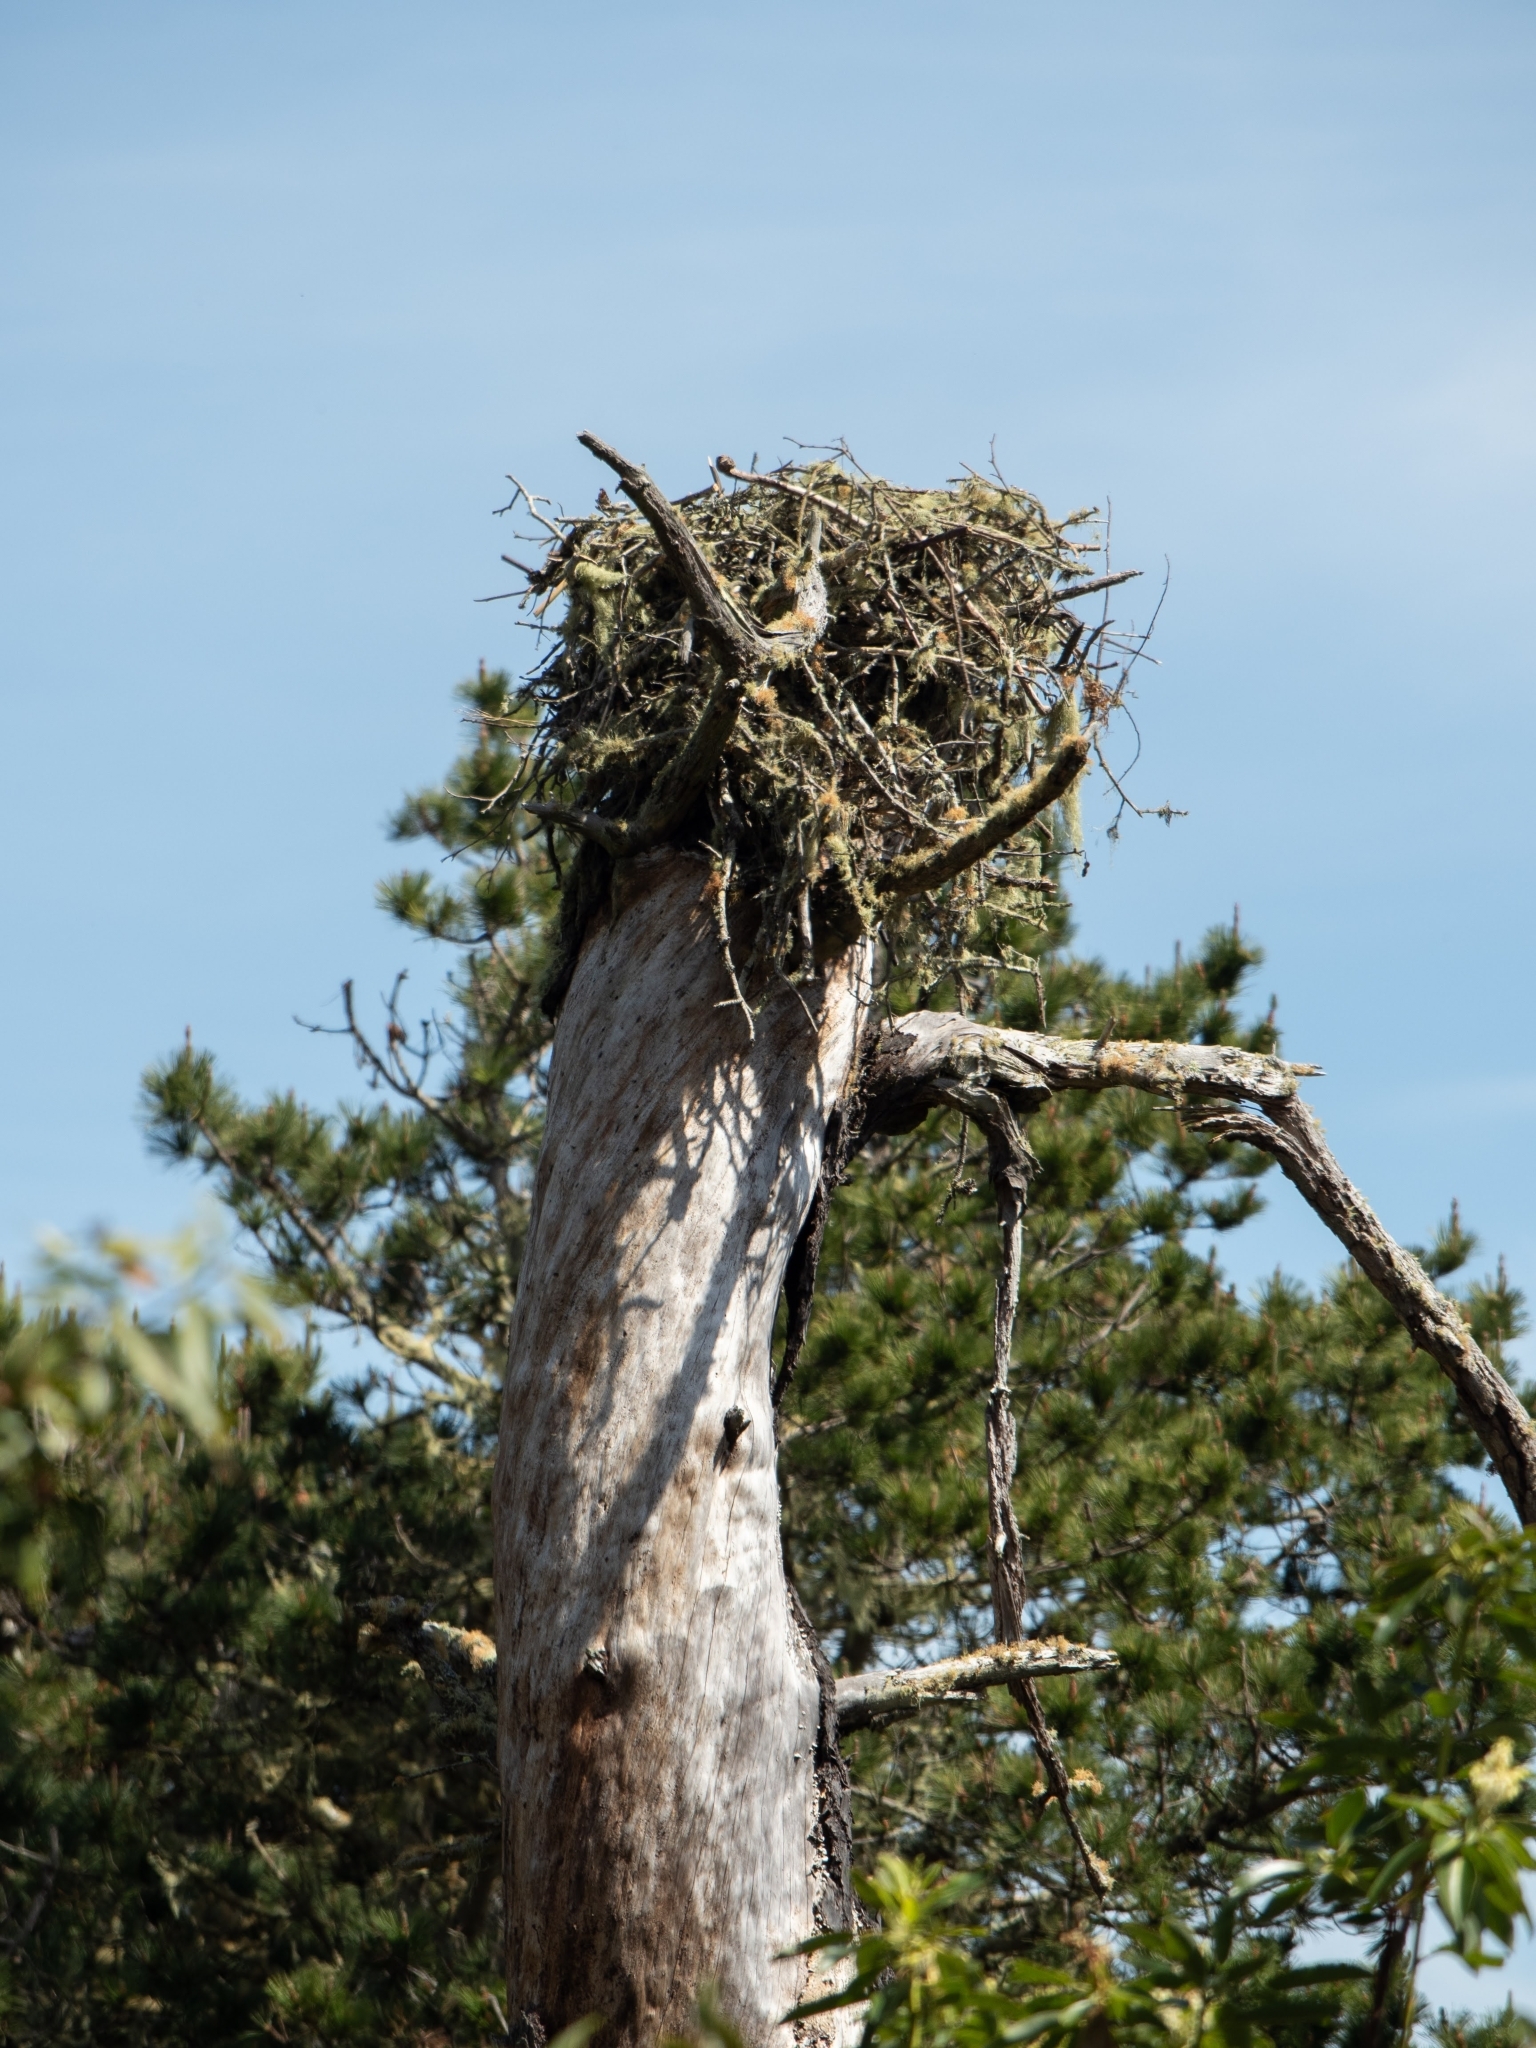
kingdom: Animalia
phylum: Chordata
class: Aves
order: Accipitriformes
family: Pandionidae
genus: Pandion
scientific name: Pandion haliaetus
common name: Osprey
